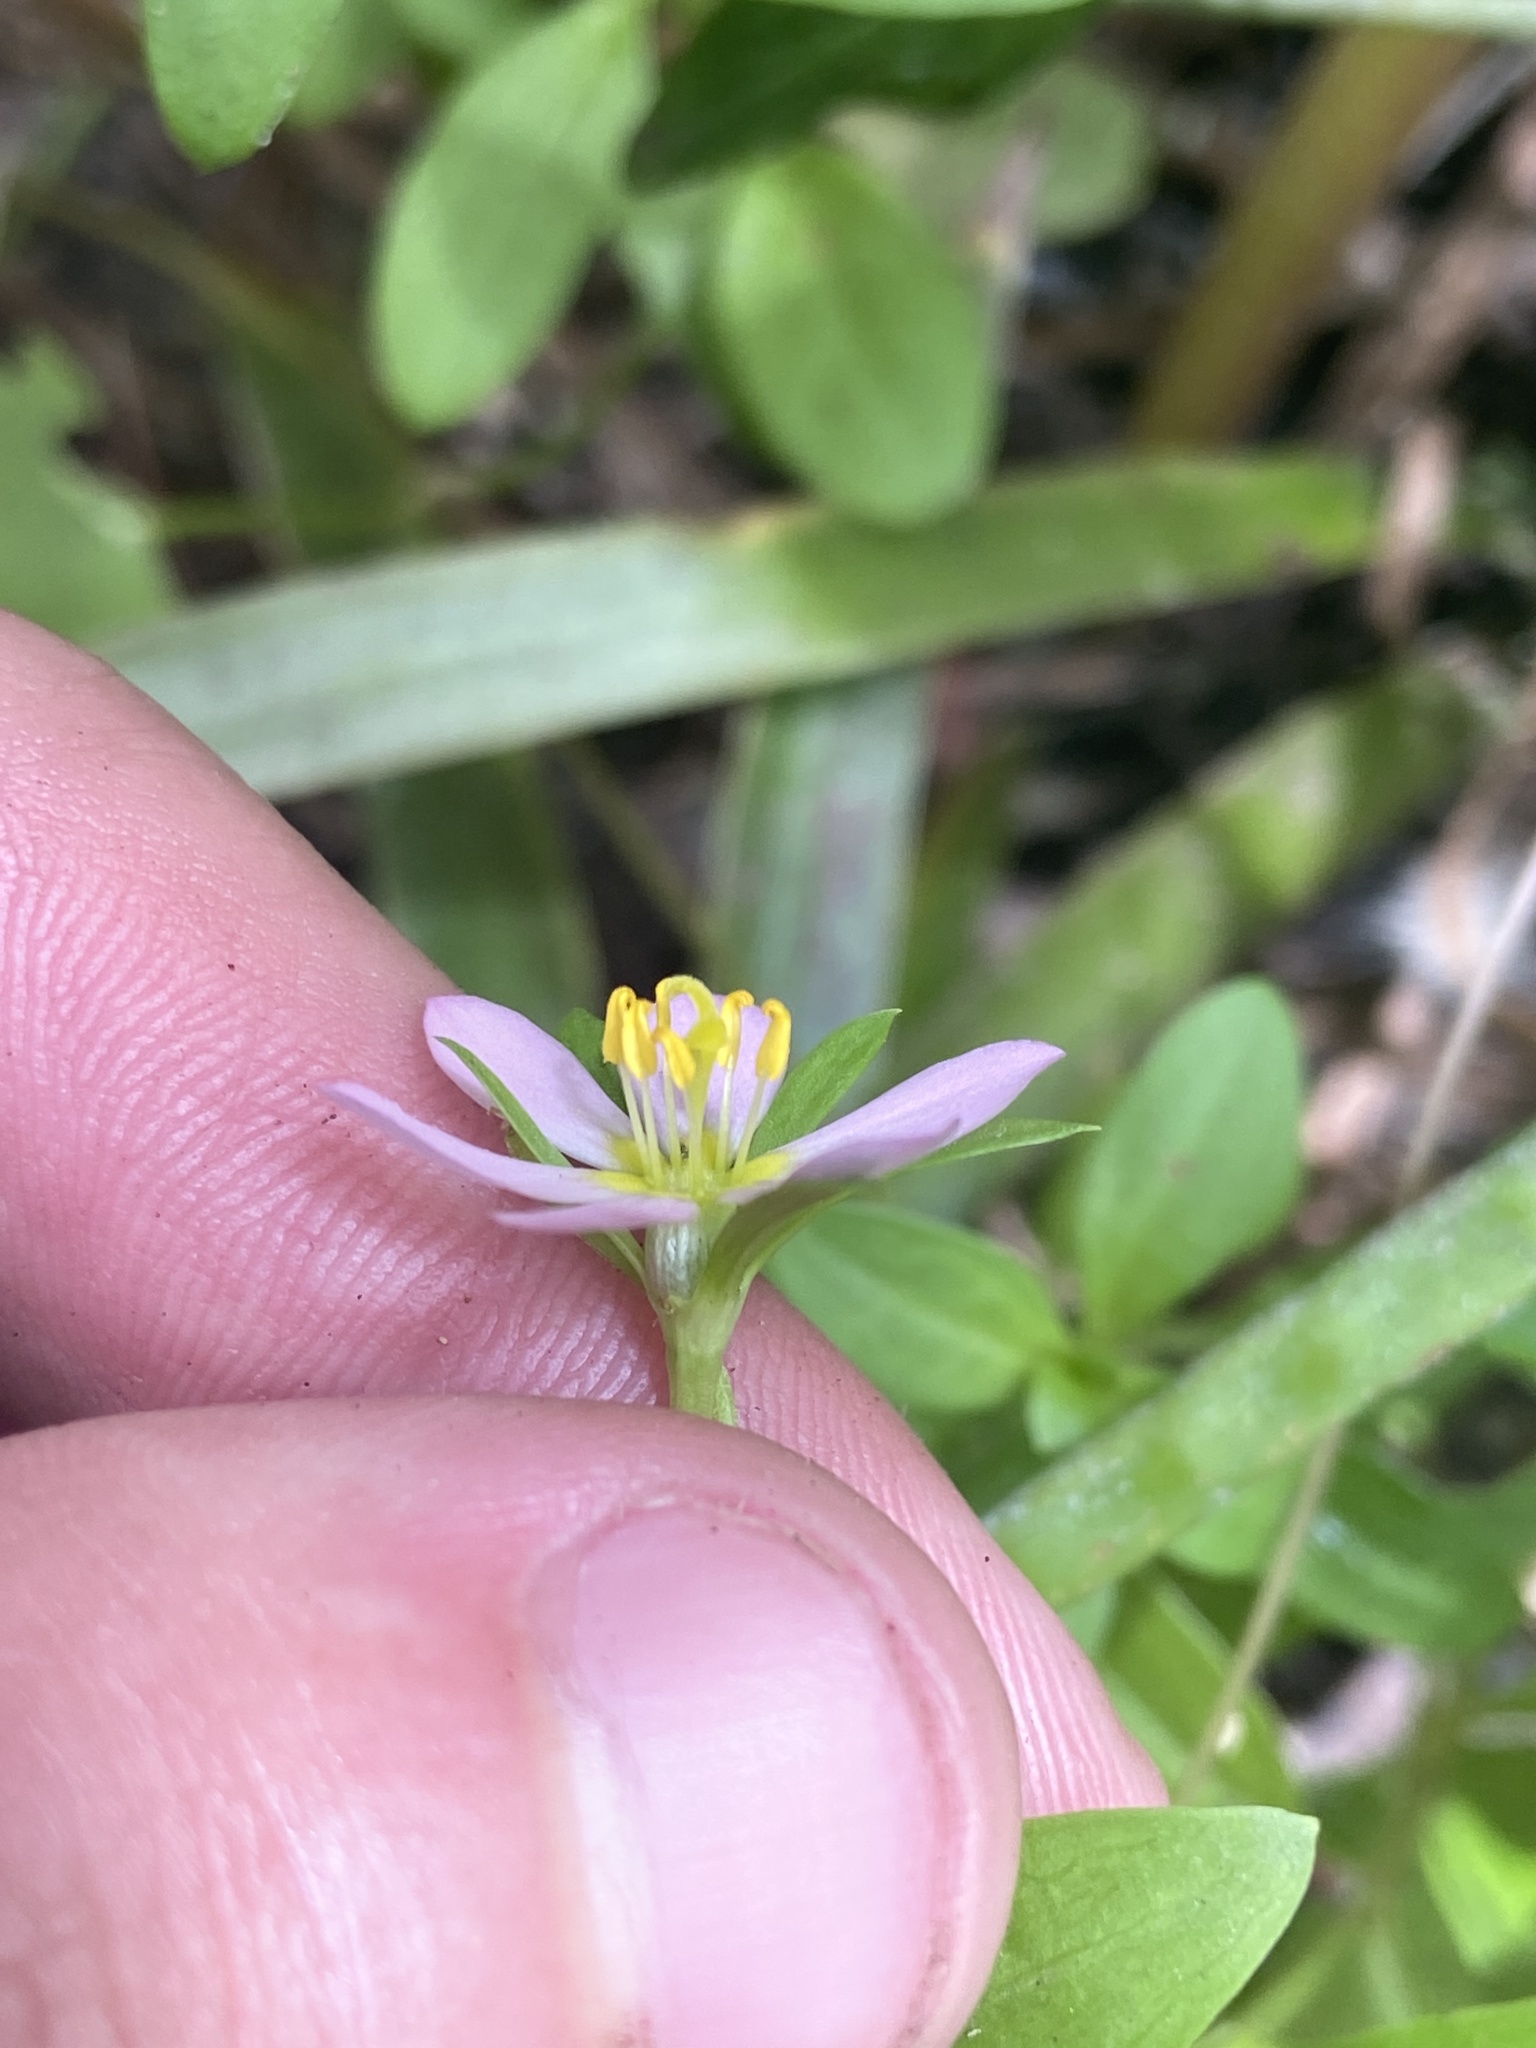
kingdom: Plantae
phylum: Tracheophyta
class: Magnoliopsida
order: Gentianales
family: Gentianaceae
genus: Sabatia
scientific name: Sabatia calycina
